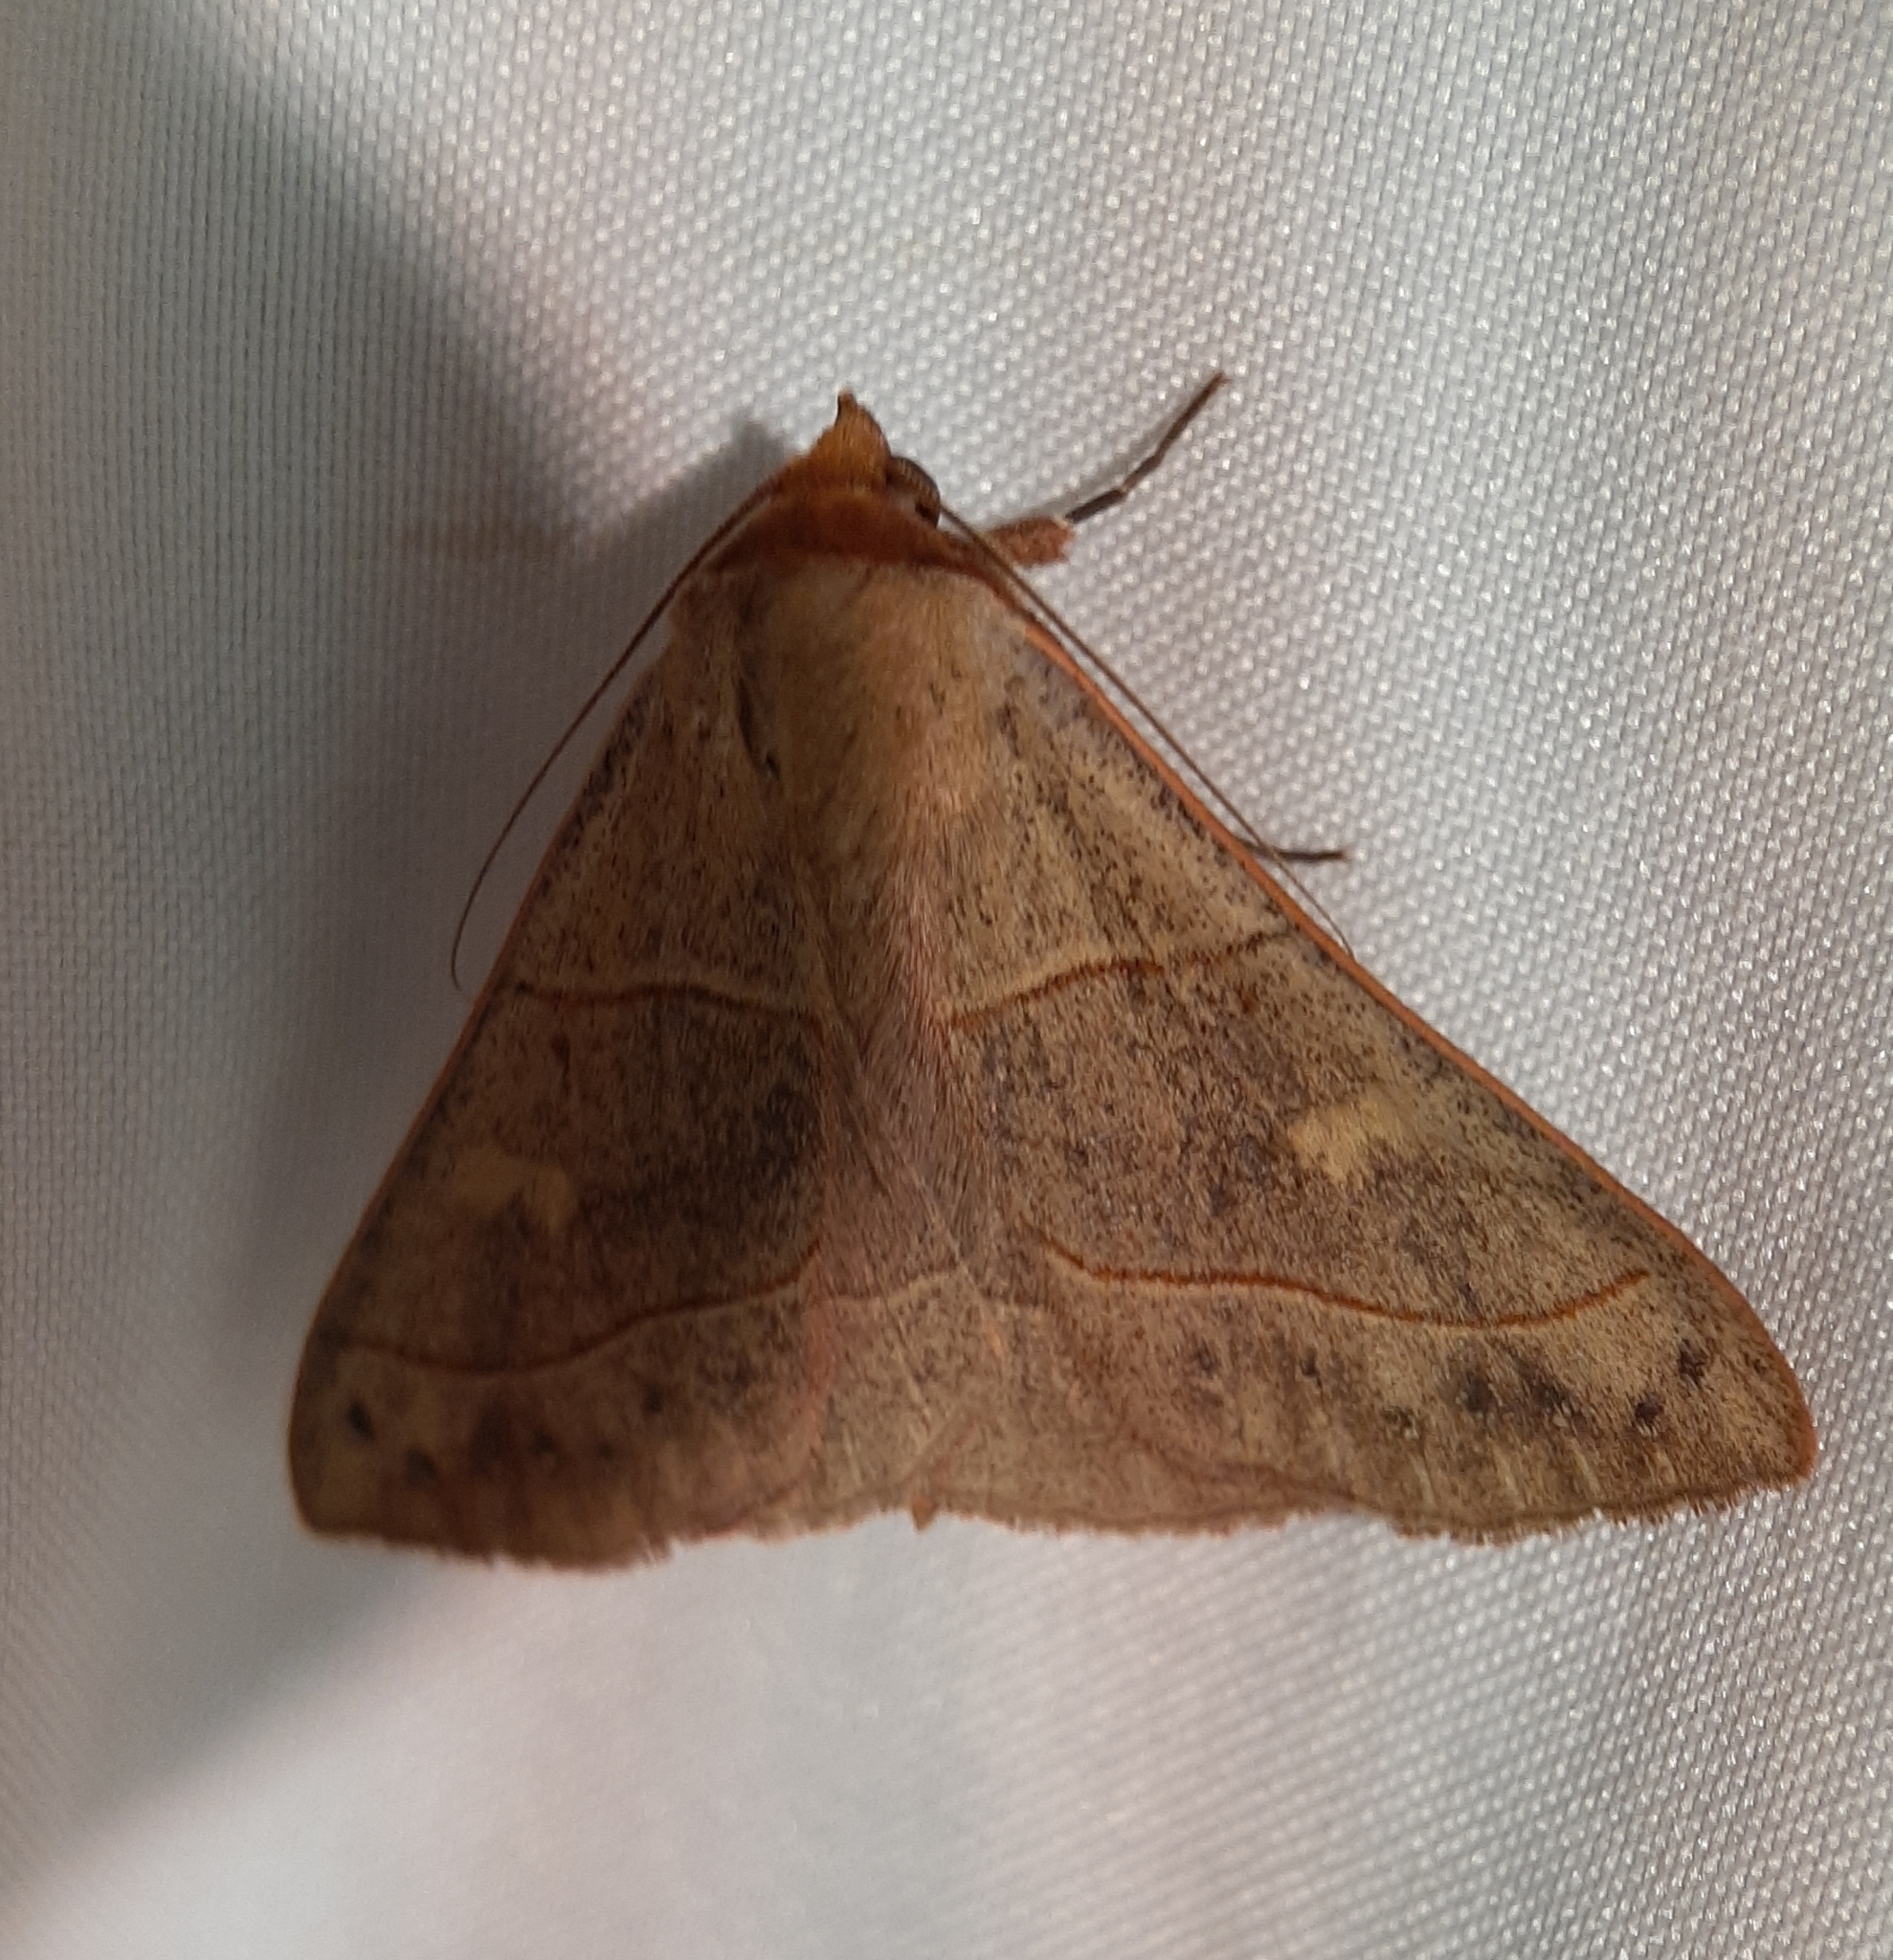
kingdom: Animalia
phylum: Arthropoda
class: Insecta
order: Lepidoptera
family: Erebidae
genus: Panopoda
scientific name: Panopoda rufimargo
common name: Red-lined panopoda moth
